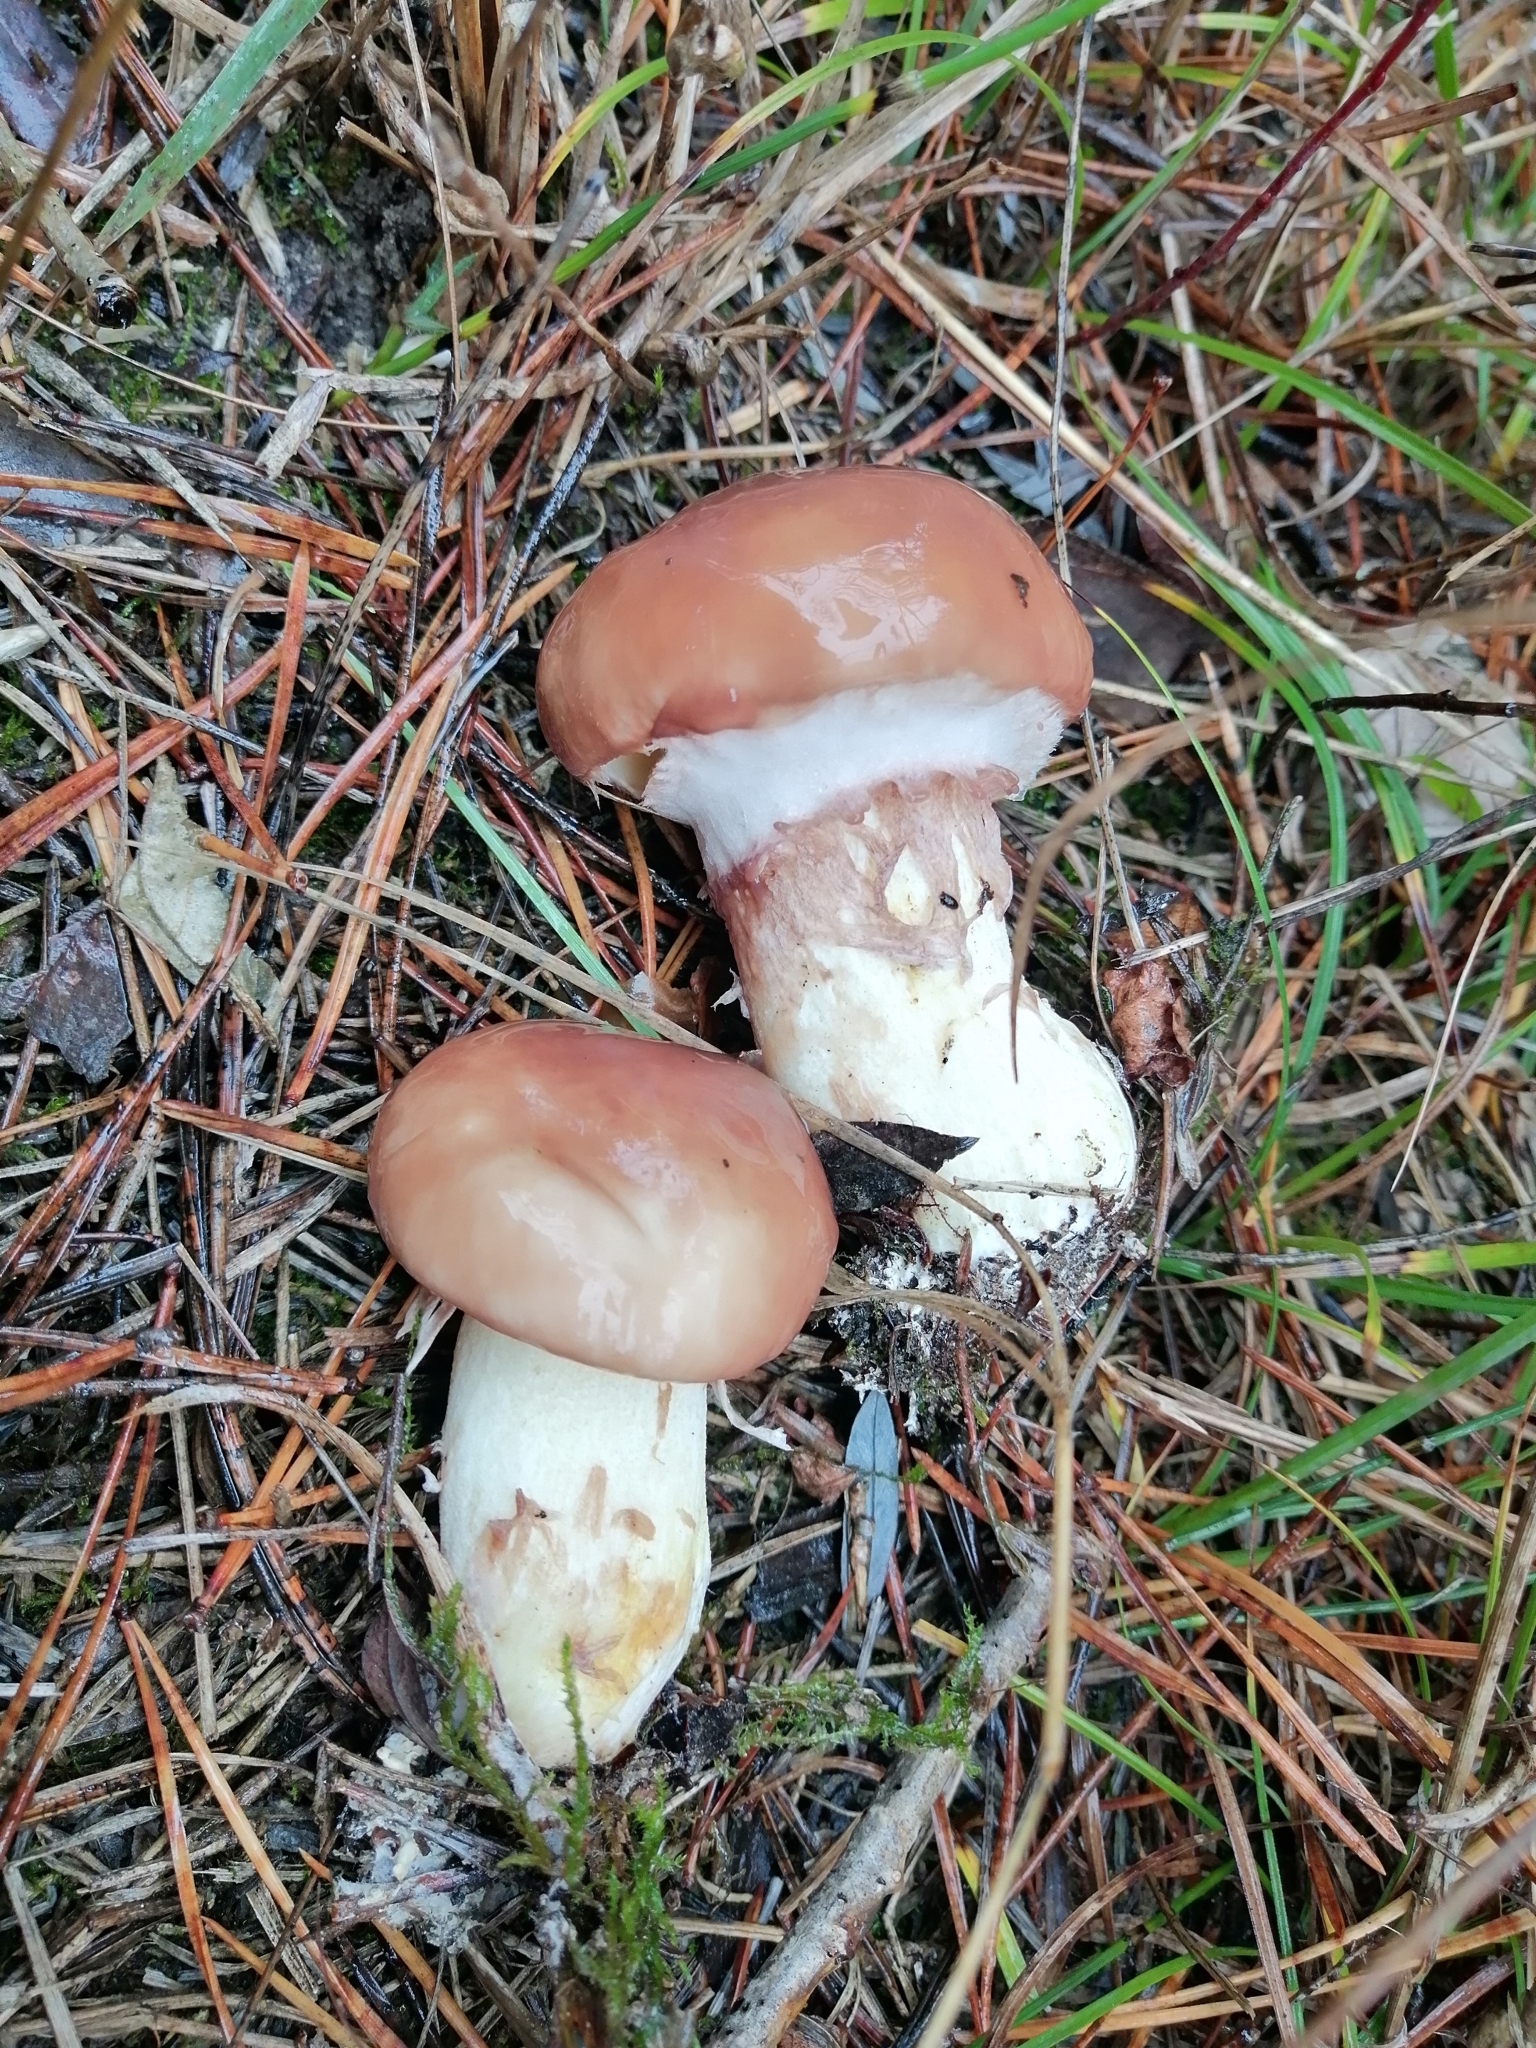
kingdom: Fungi
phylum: Basidiomycota
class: Agaricomycetes
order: Boletales
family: Suillaceae
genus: Suillus
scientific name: Suillus luteus
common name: Slippery jack
